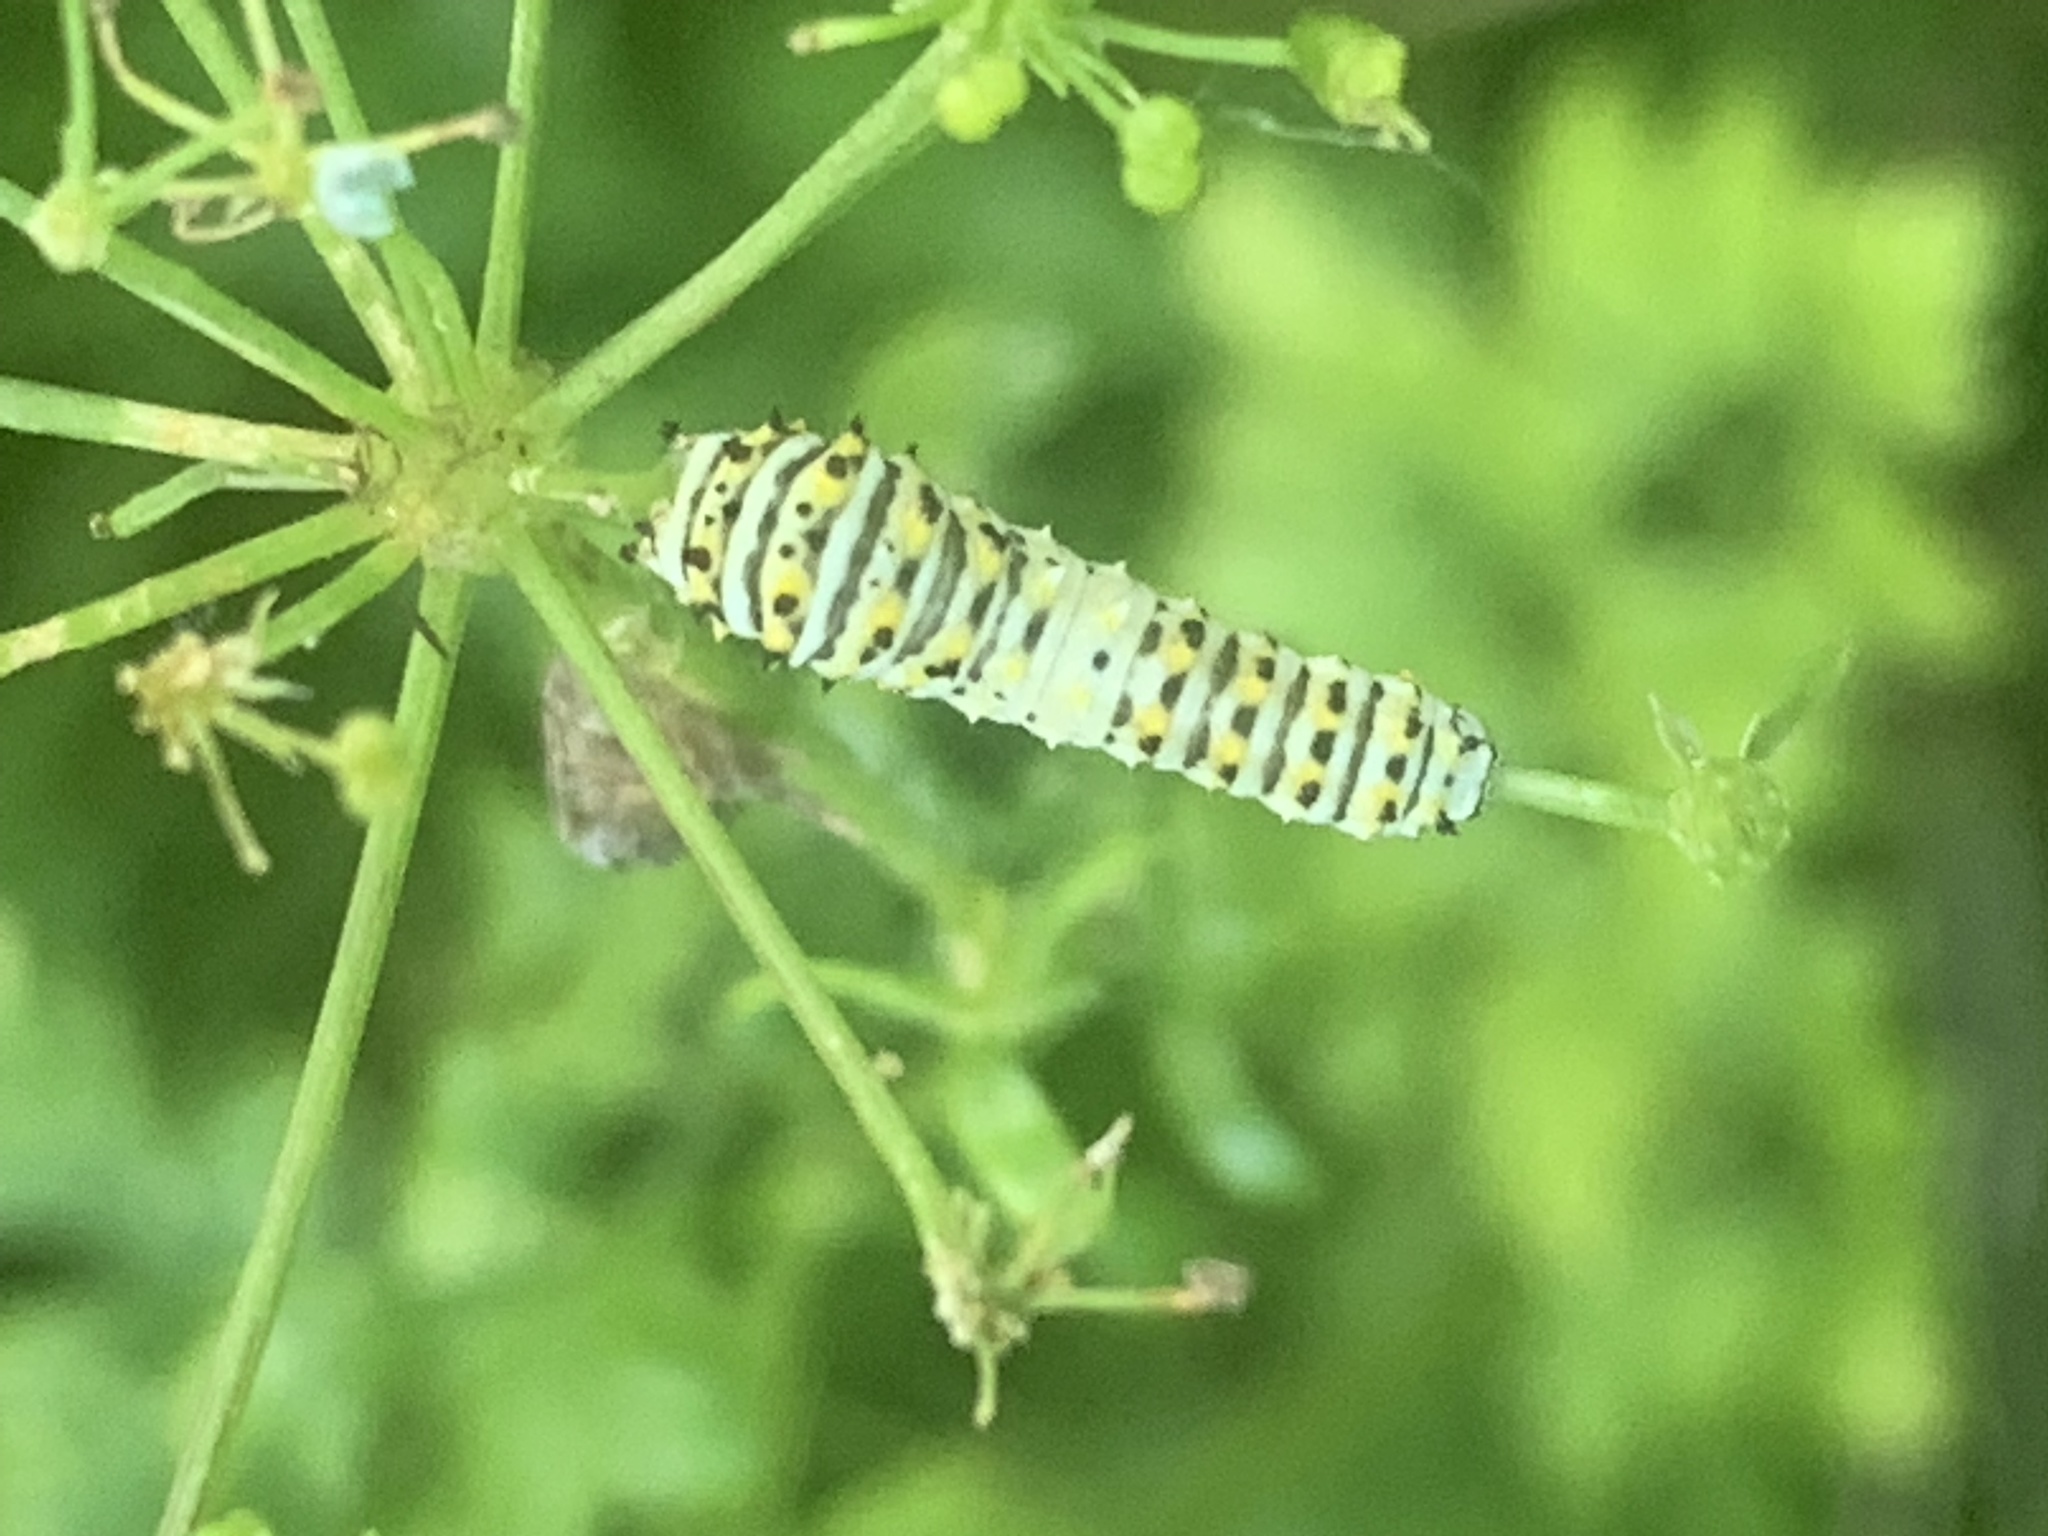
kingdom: Animalia
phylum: Arthropoda
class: Insecta
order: Lepidoptera
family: Papilionidae
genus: Papilio
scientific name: Papilio polyxenes
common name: Black swallowtail
